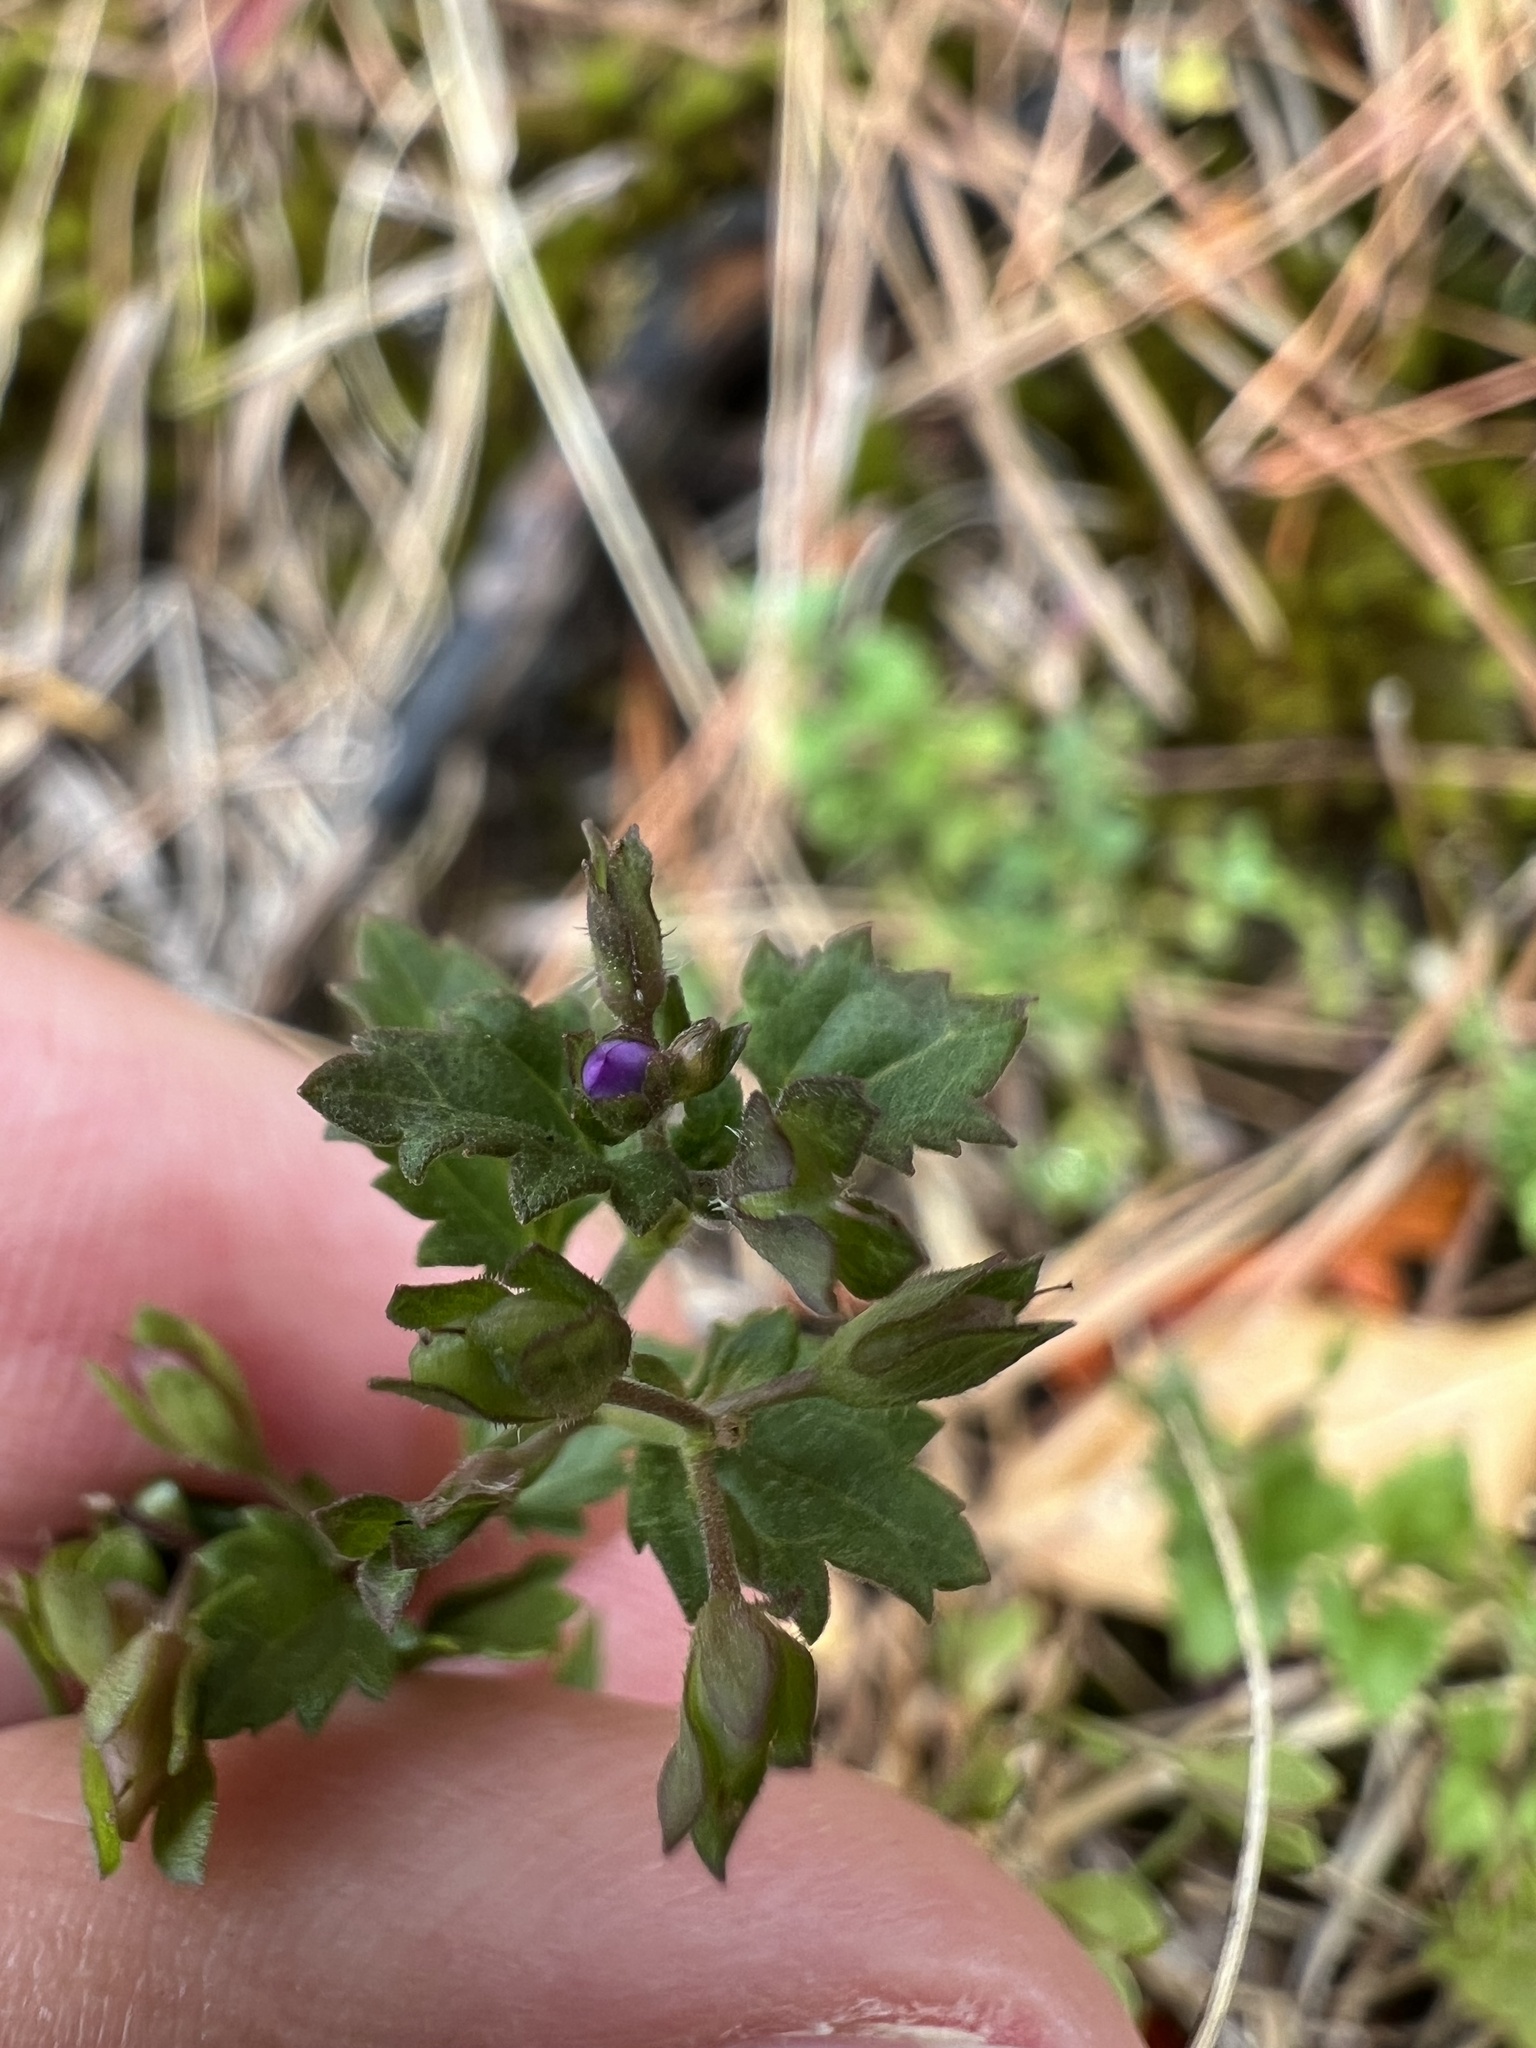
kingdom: Plantae
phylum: Tracheophyta
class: Magnoliopsida
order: Lamiales
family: Plantaginaceae
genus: Veronica
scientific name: Veronica plebeia
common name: Speedwell
